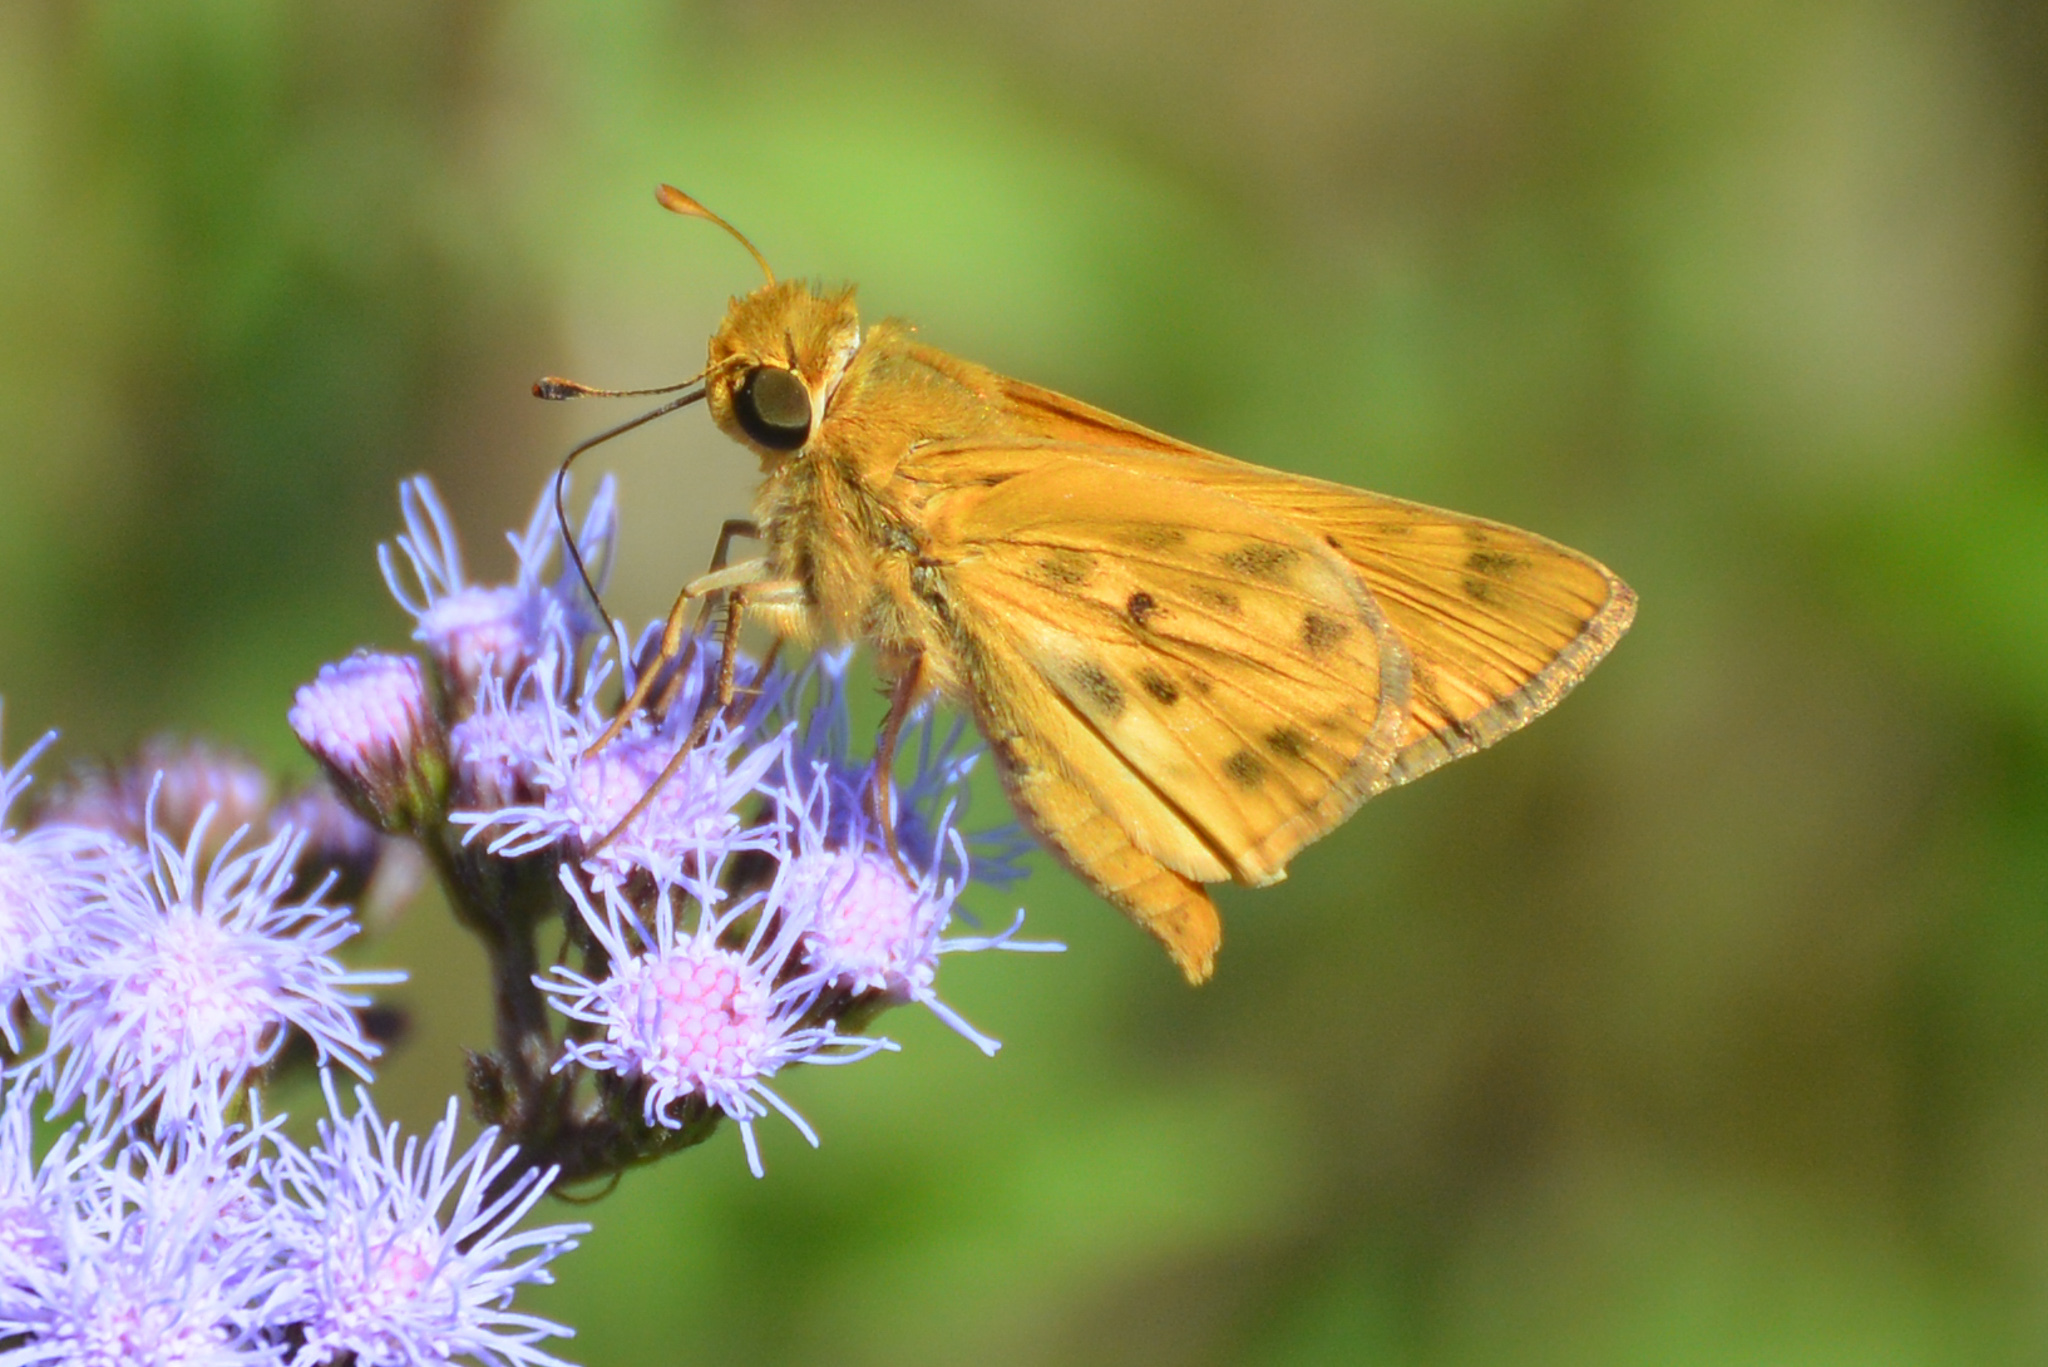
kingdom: Animalia
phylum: Arthropoda
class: Insecta
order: Lepidoptera
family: Hesperiidae
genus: Hylephila
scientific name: Hylephila phyleus
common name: Fiery skipper
